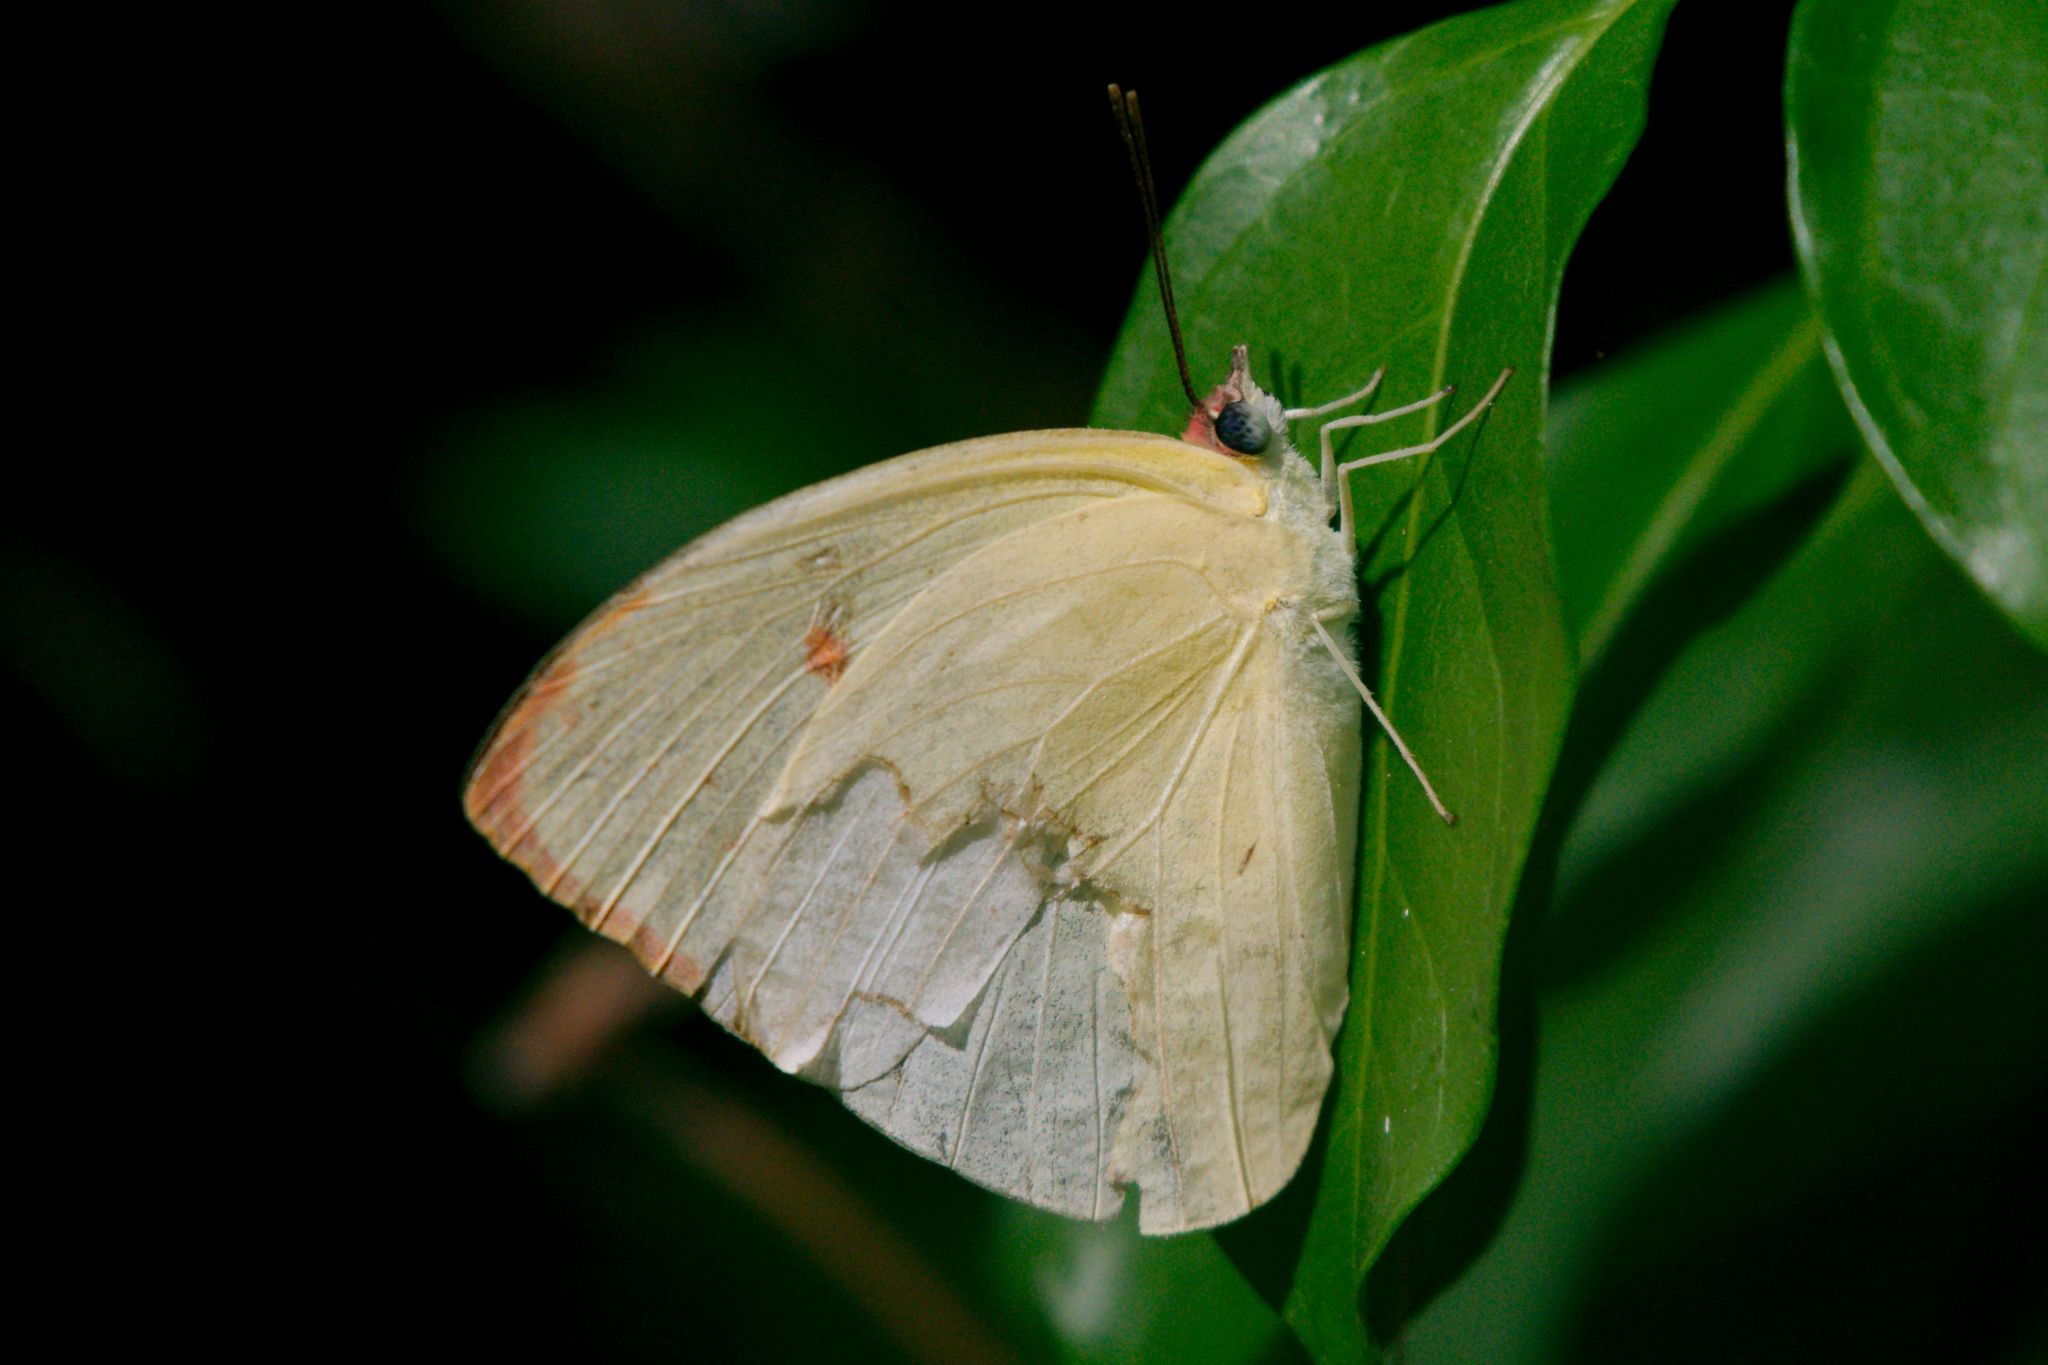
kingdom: Animalia
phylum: Arthropoda
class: Insecta
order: Lepidoptera
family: Pieridae
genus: Aphrissa
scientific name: Aphrissa statira
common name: Statira sulphur
